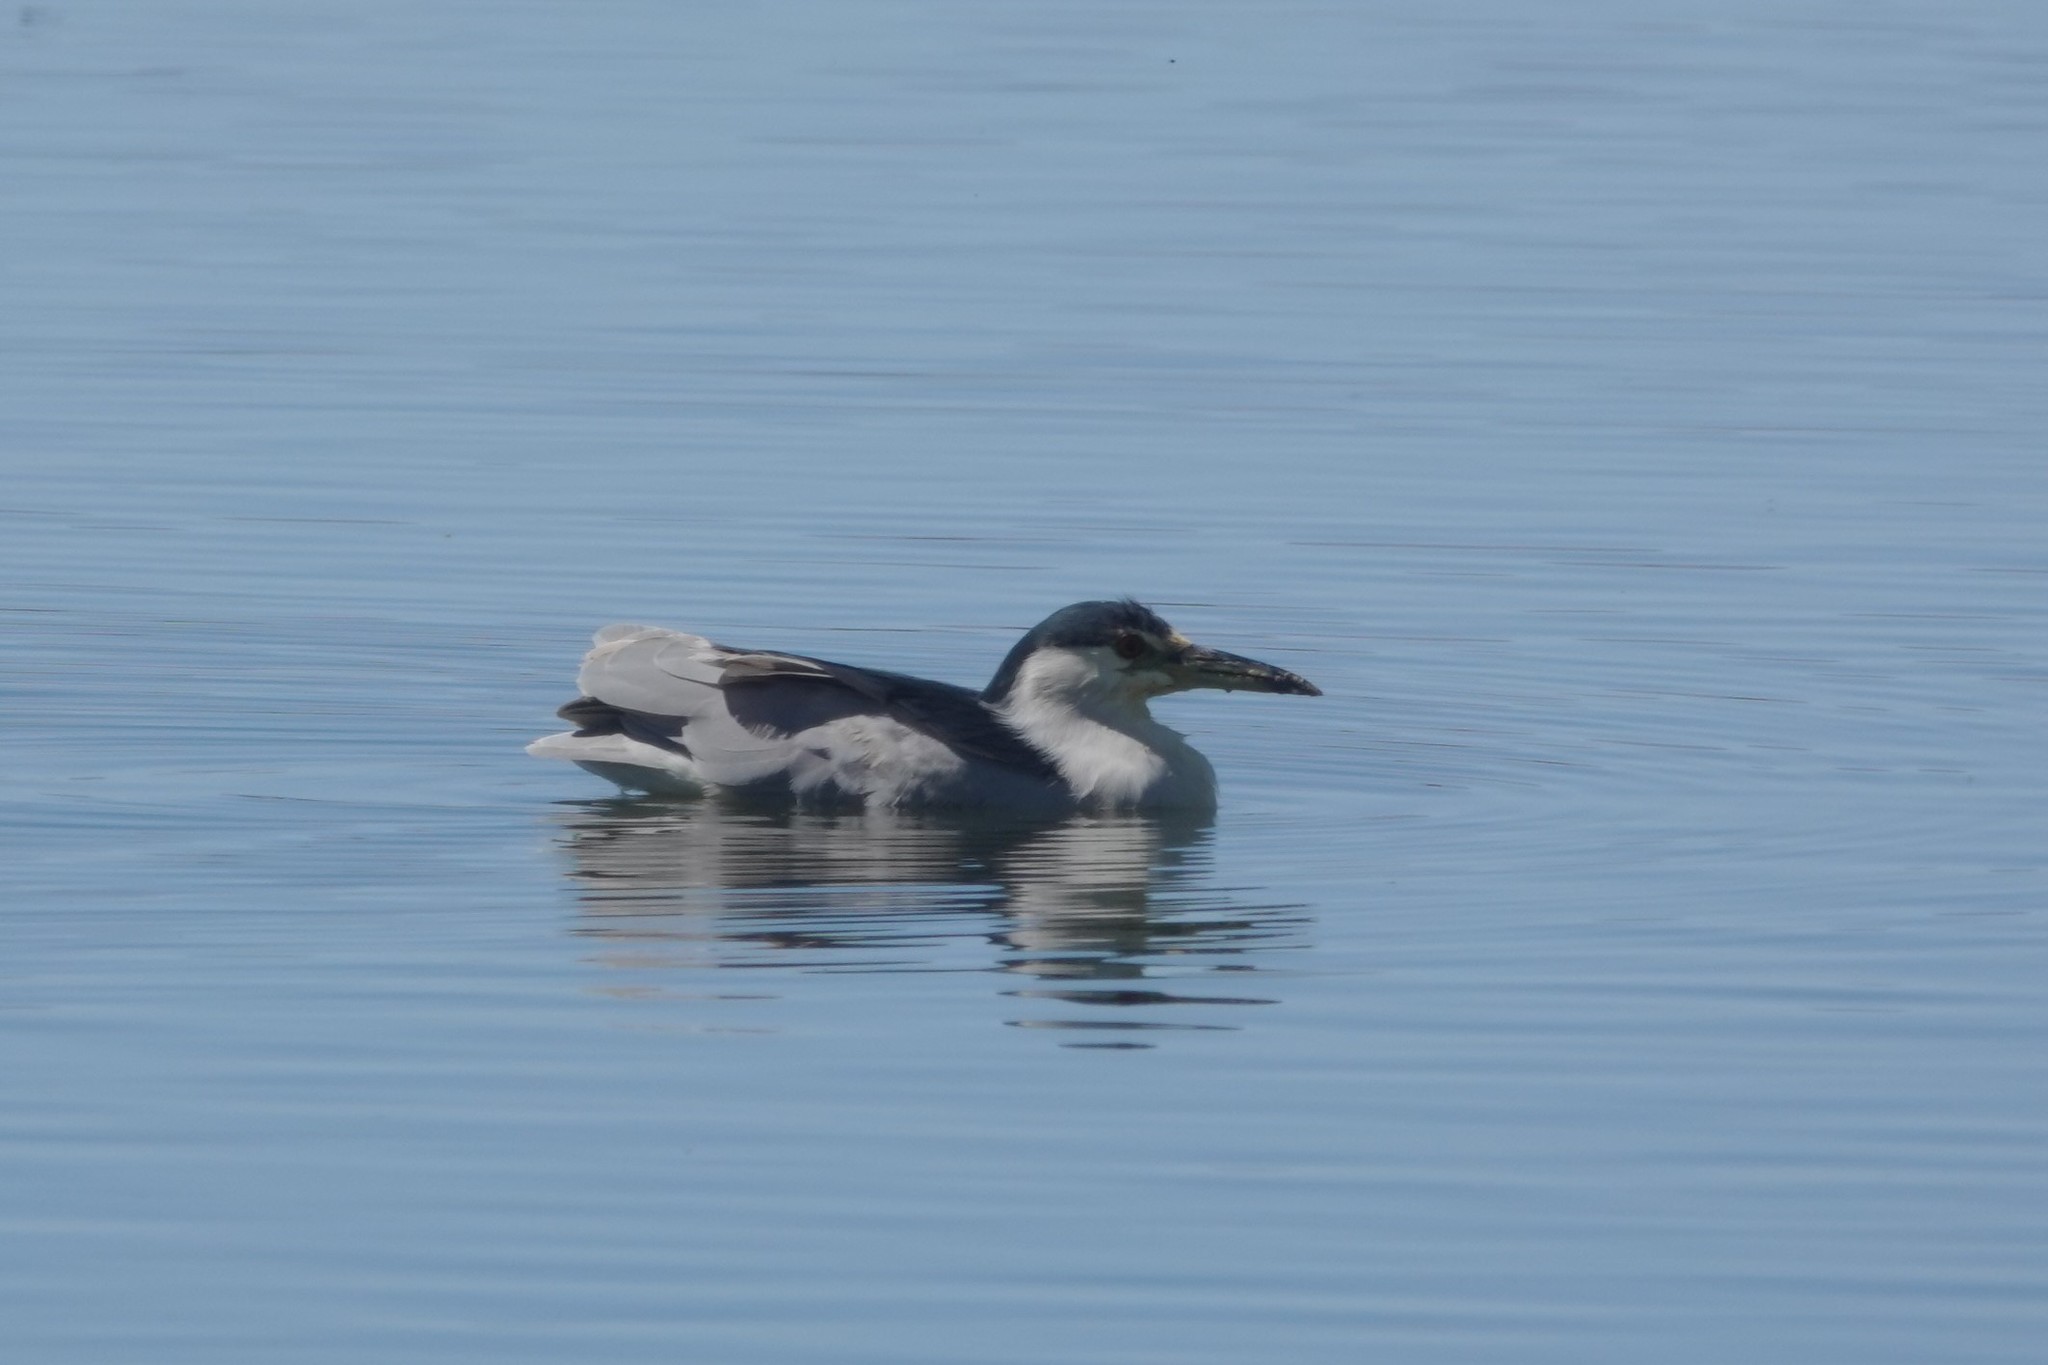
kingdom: Animalia
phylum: Chordata
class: Aves
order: Pelecaniformes
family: Ardeidae
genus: Nycticorax
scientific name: Nycticorax nycticorax
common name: Black-crowned night heron
